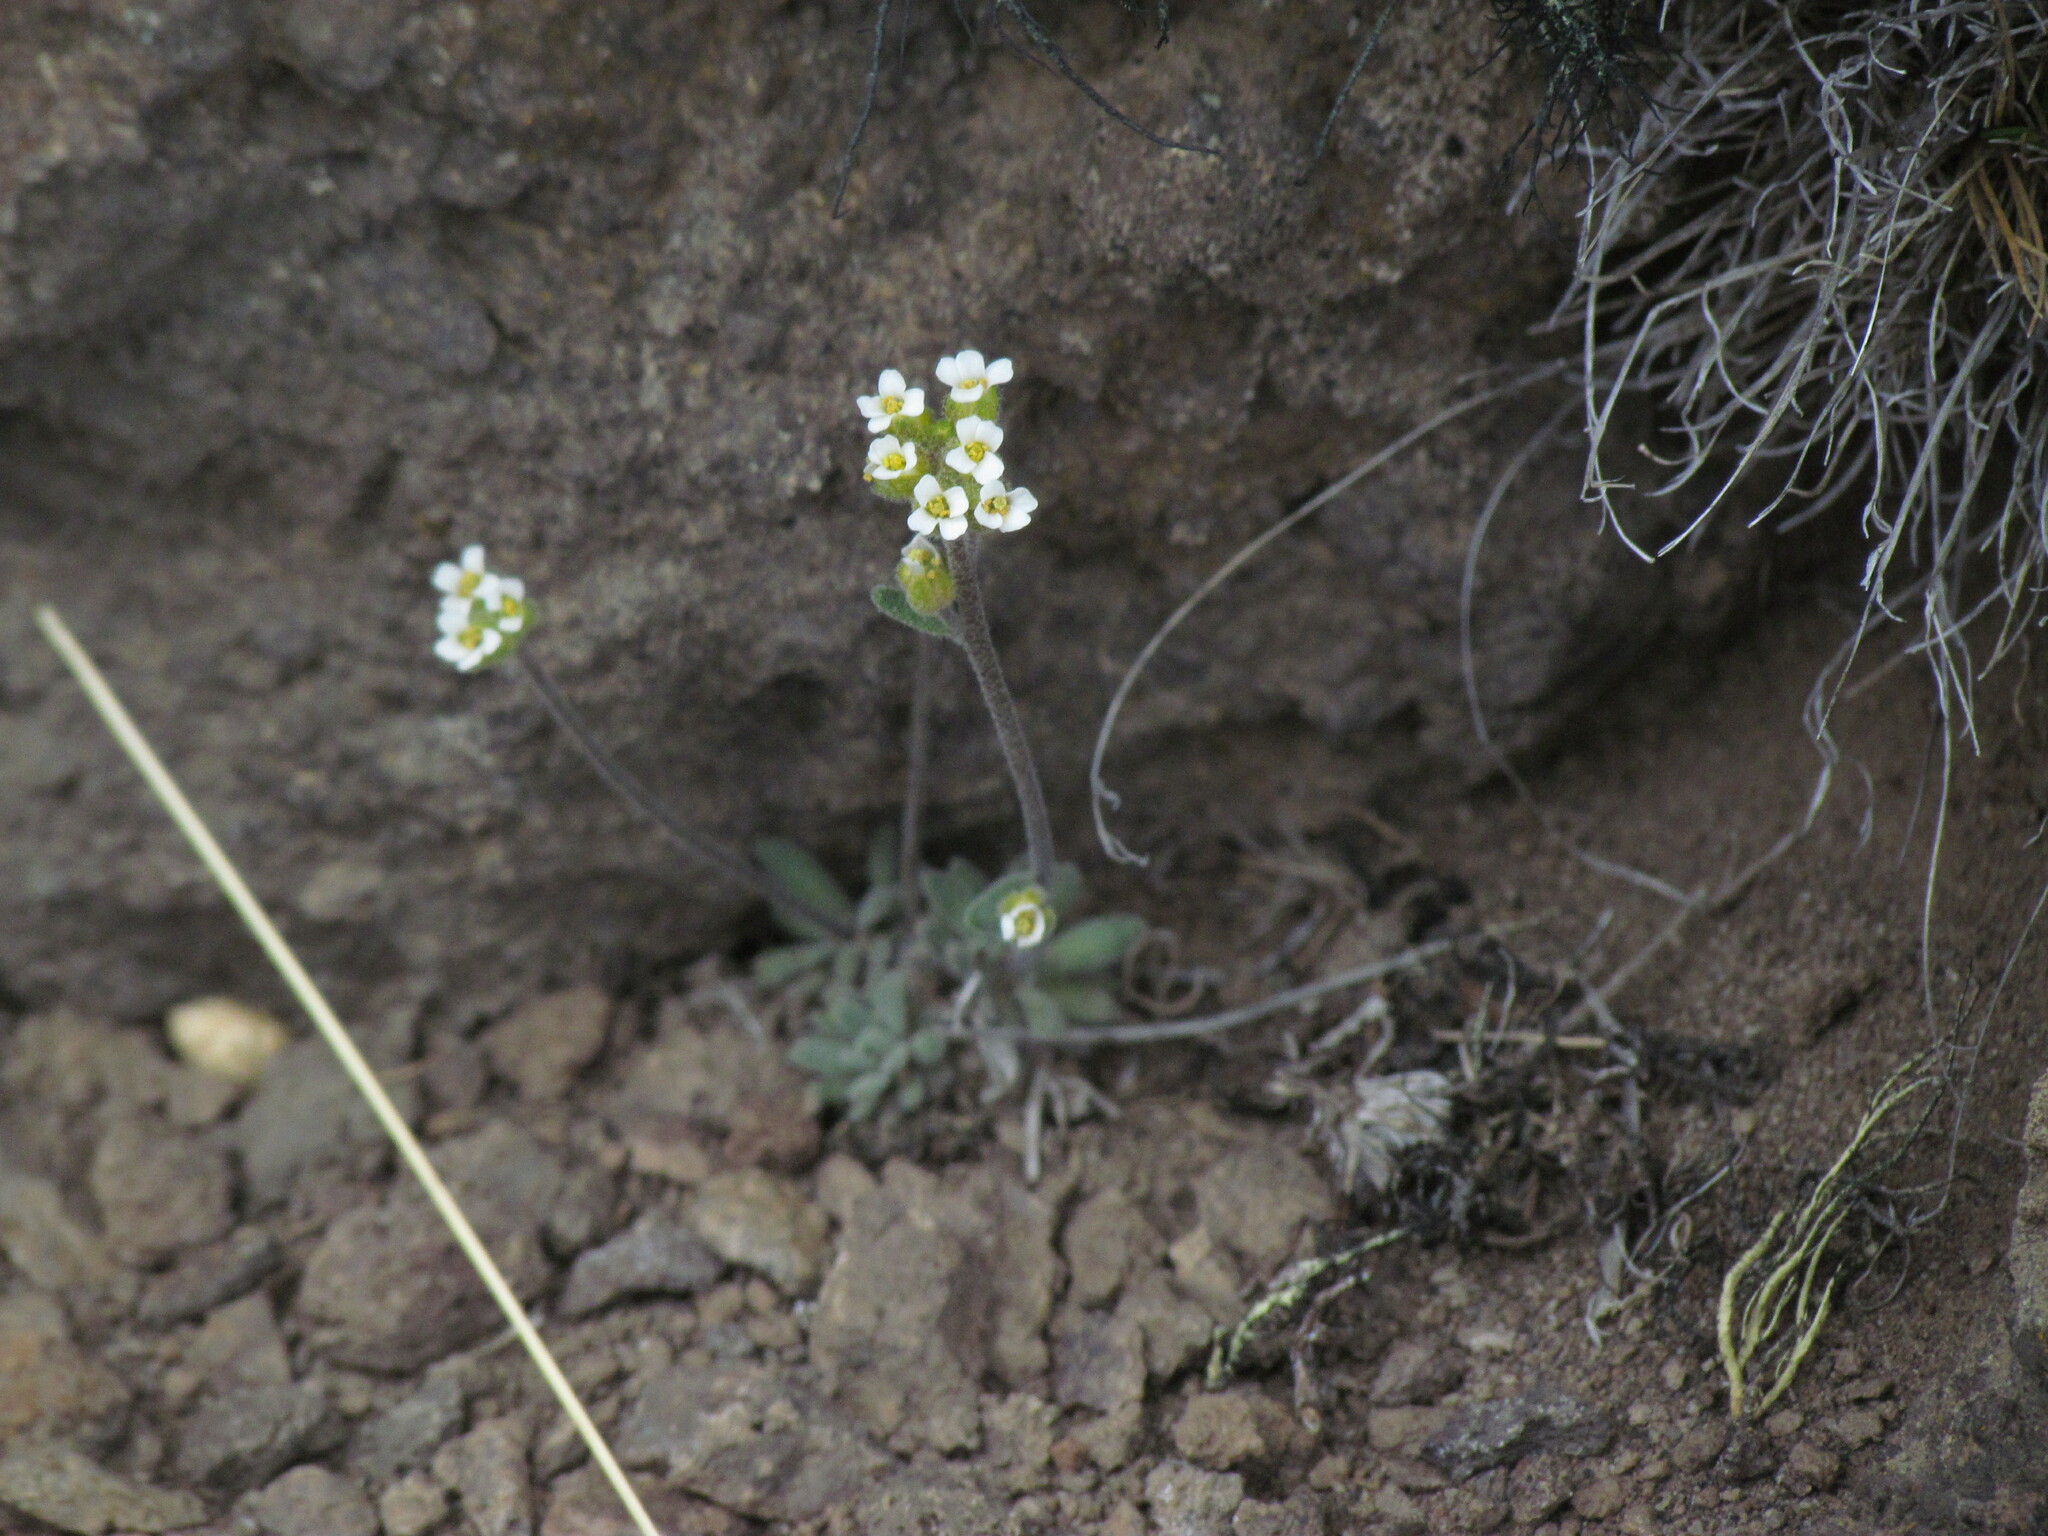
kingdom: Plantae
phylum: Tracheophyta
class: Magnoliopsida
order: Brassicales
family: Brassicaceae
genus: Draba
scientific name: Draba magellanica
